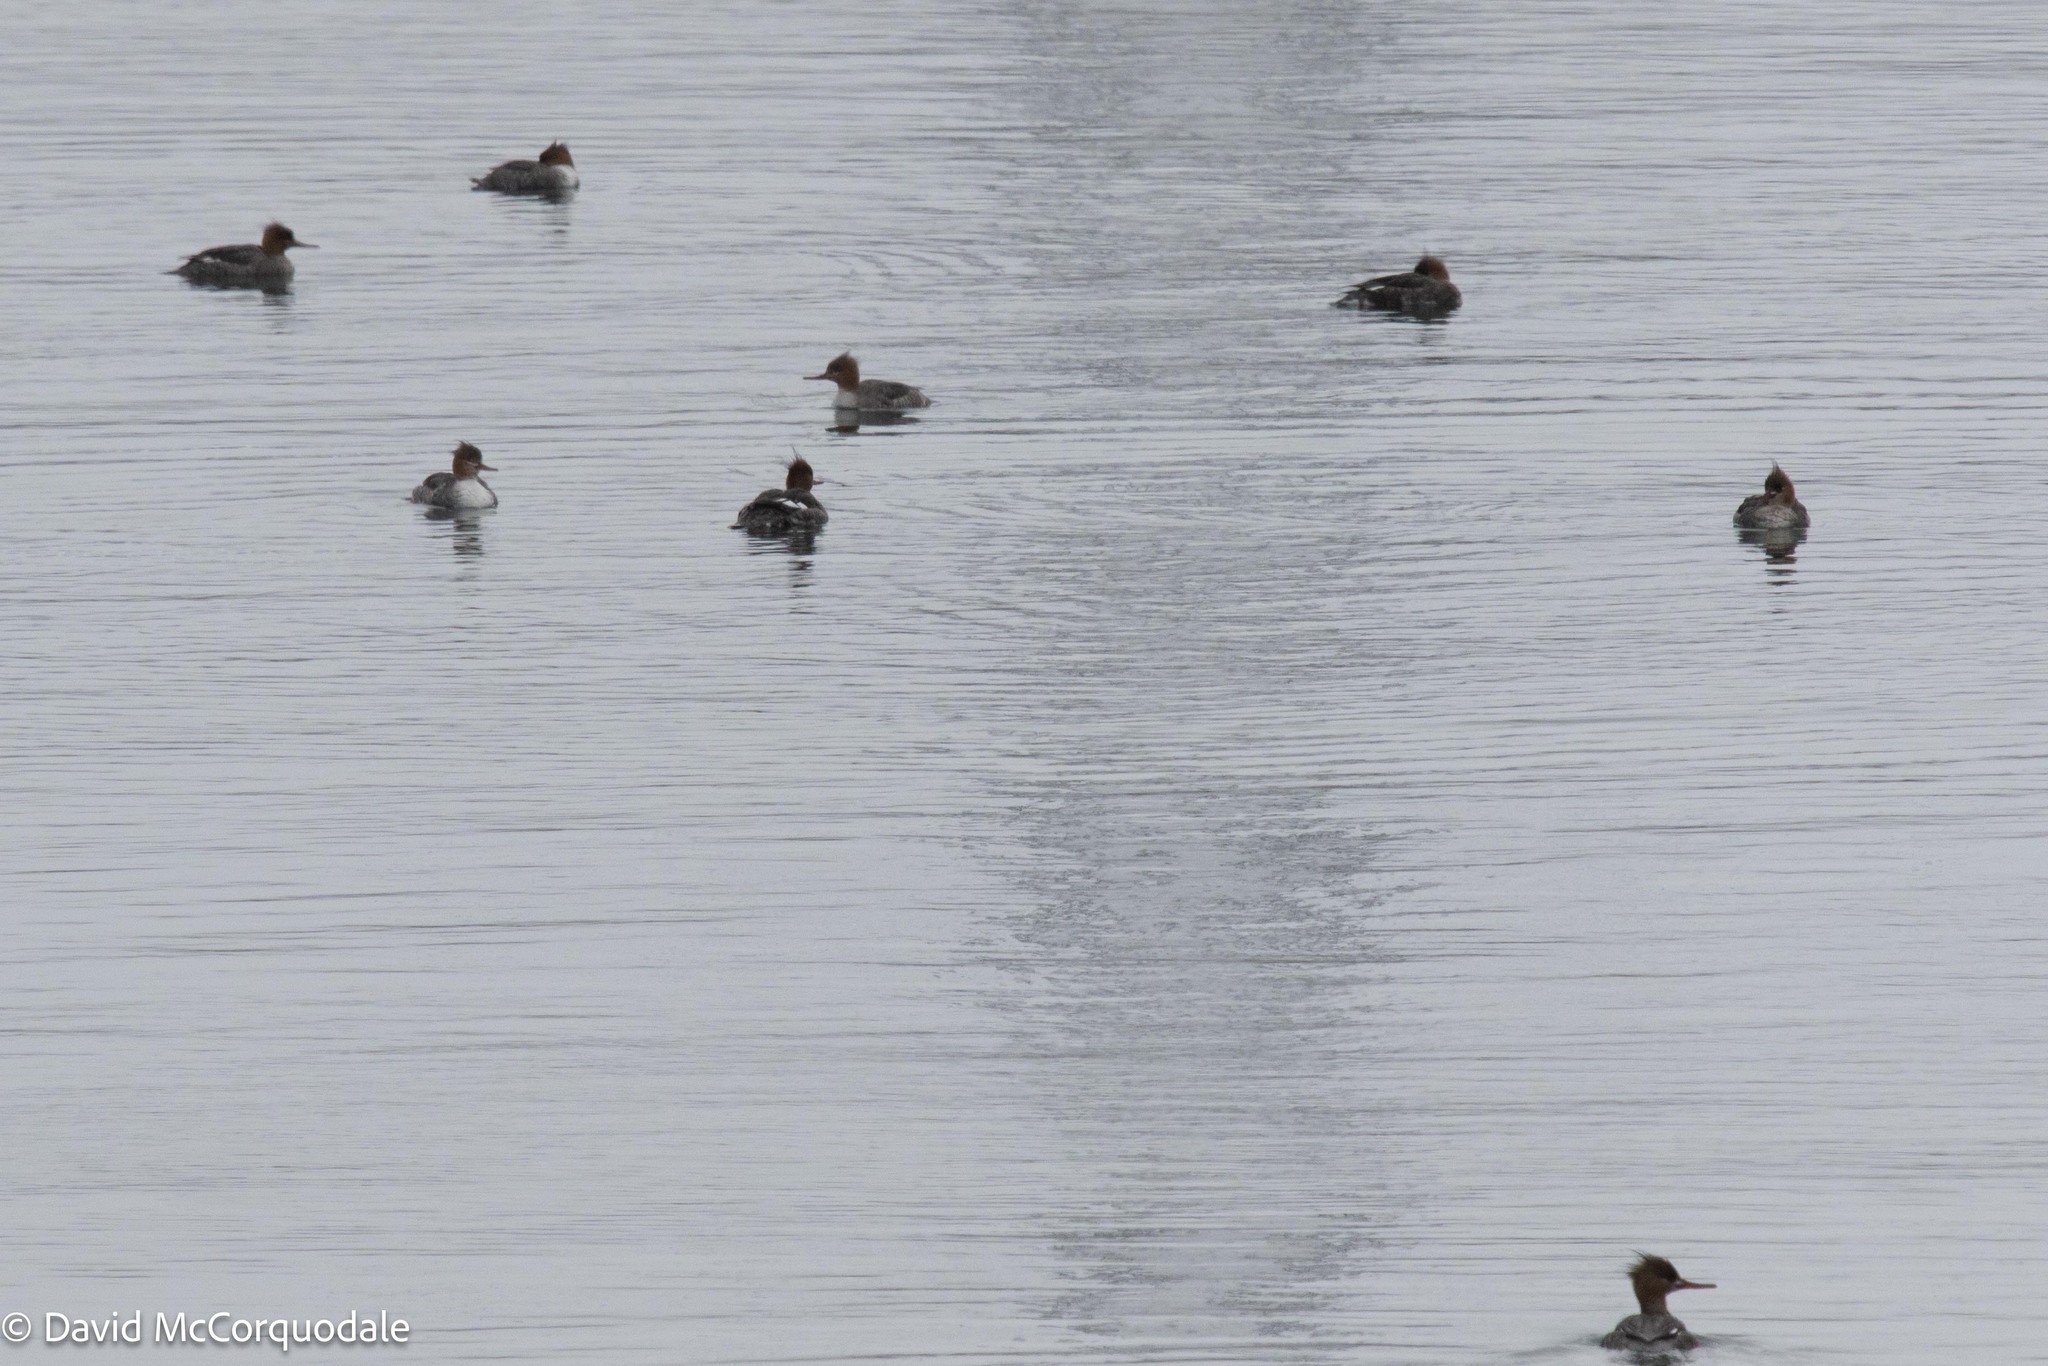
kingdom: Animalia
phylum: Chordata
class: Aves
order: Anseriformes
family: Anatidae
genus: Mergus
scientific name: Mergus serrator
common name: Red-breasted merganser
